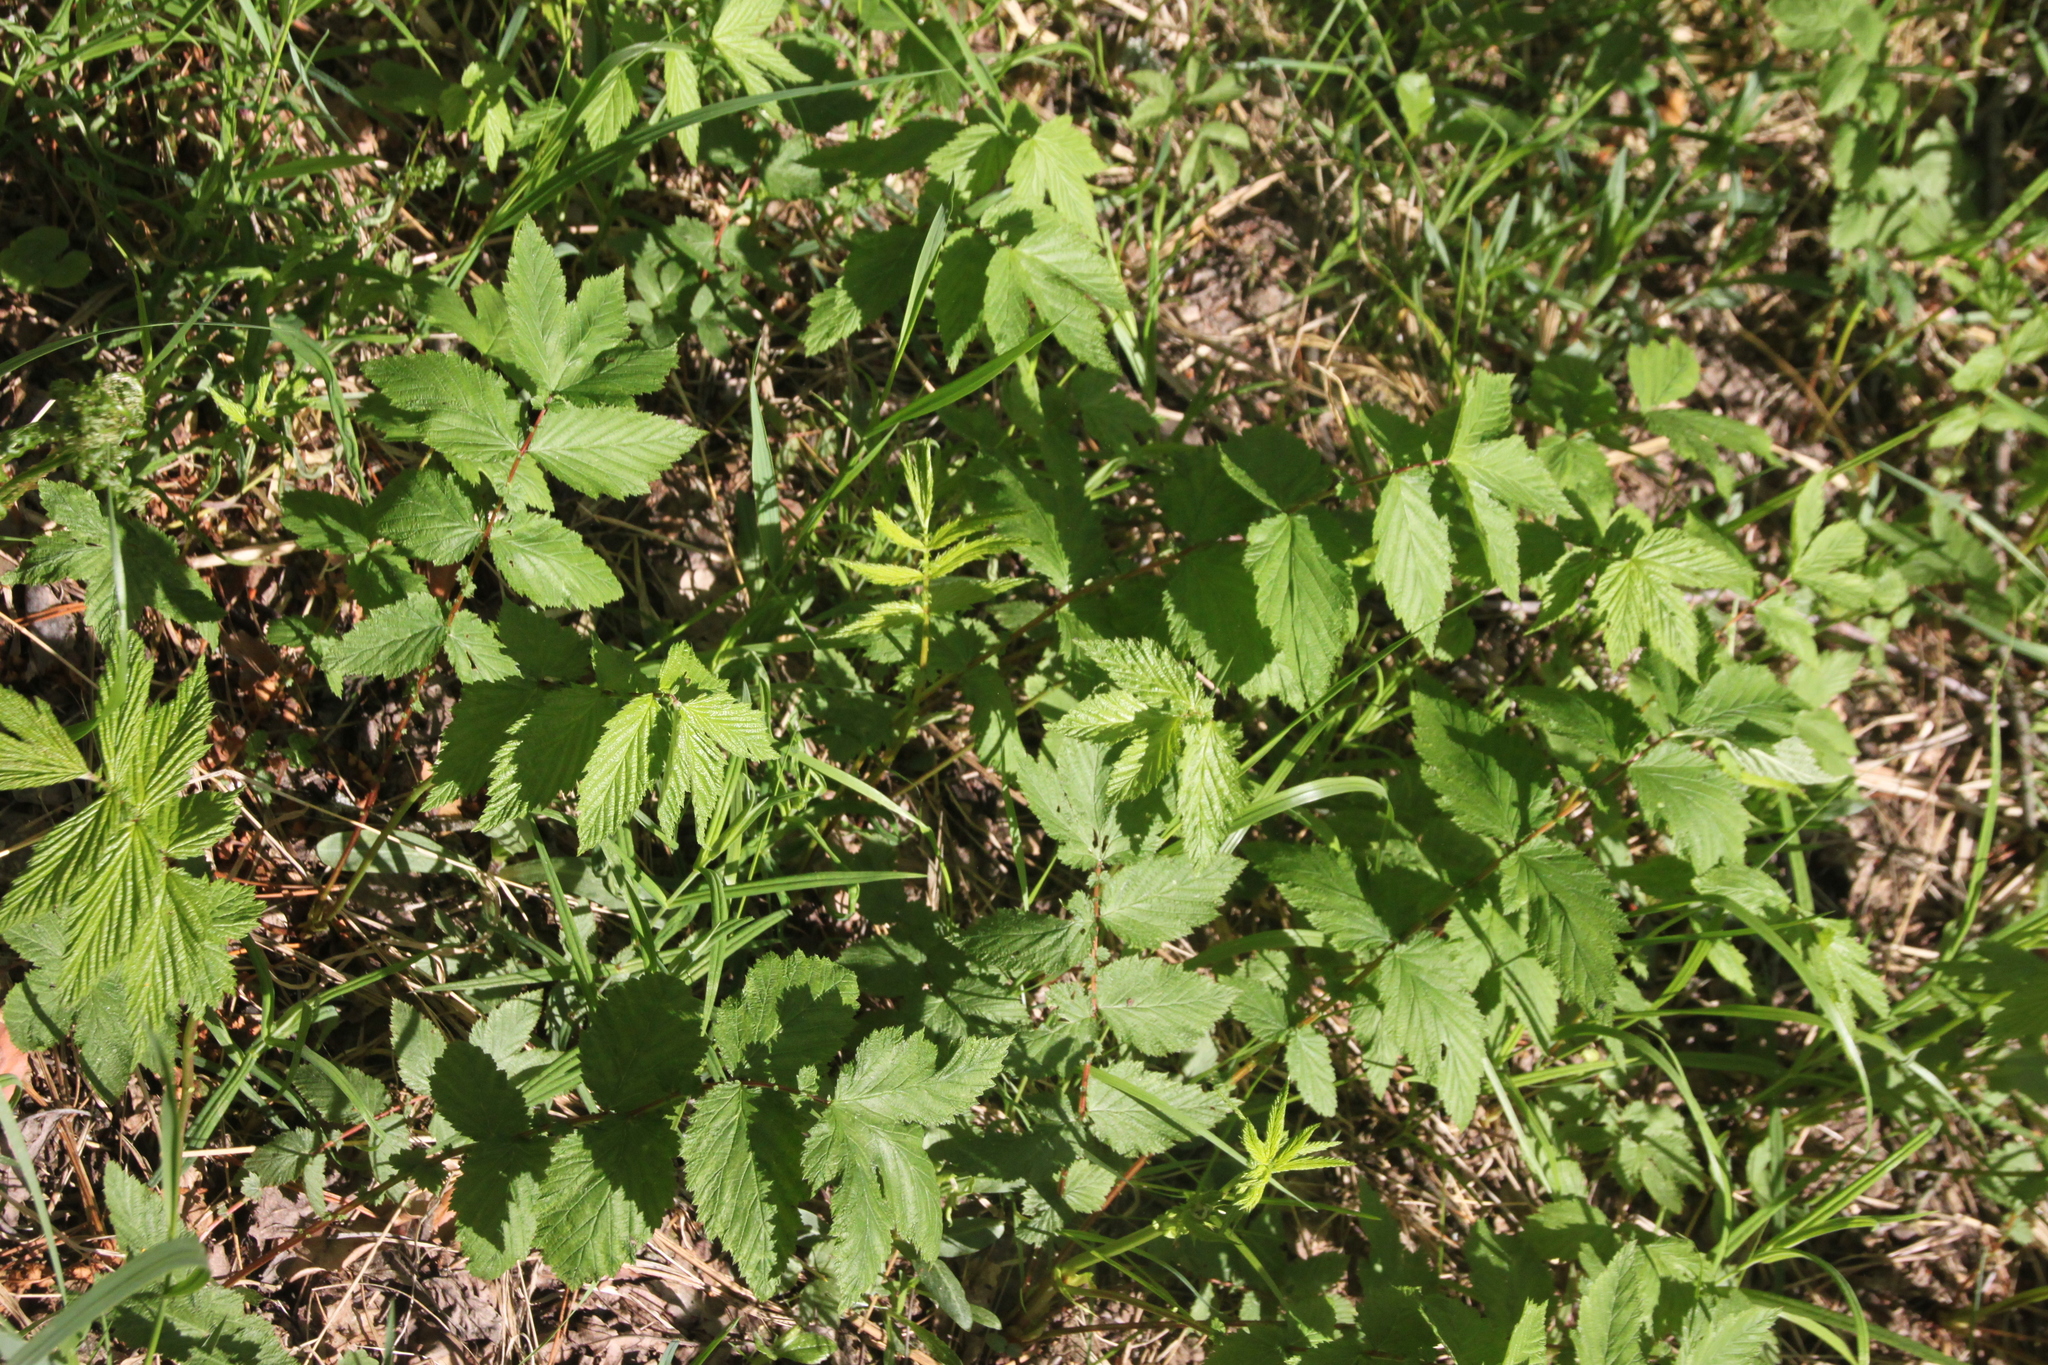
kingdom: Plantae
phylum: Tracheophyta
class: Magnoliopsida
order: Rosales
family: Rosaceae
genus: Filipendula
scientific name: Filipendula ulmaria
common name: Meadowsweet
